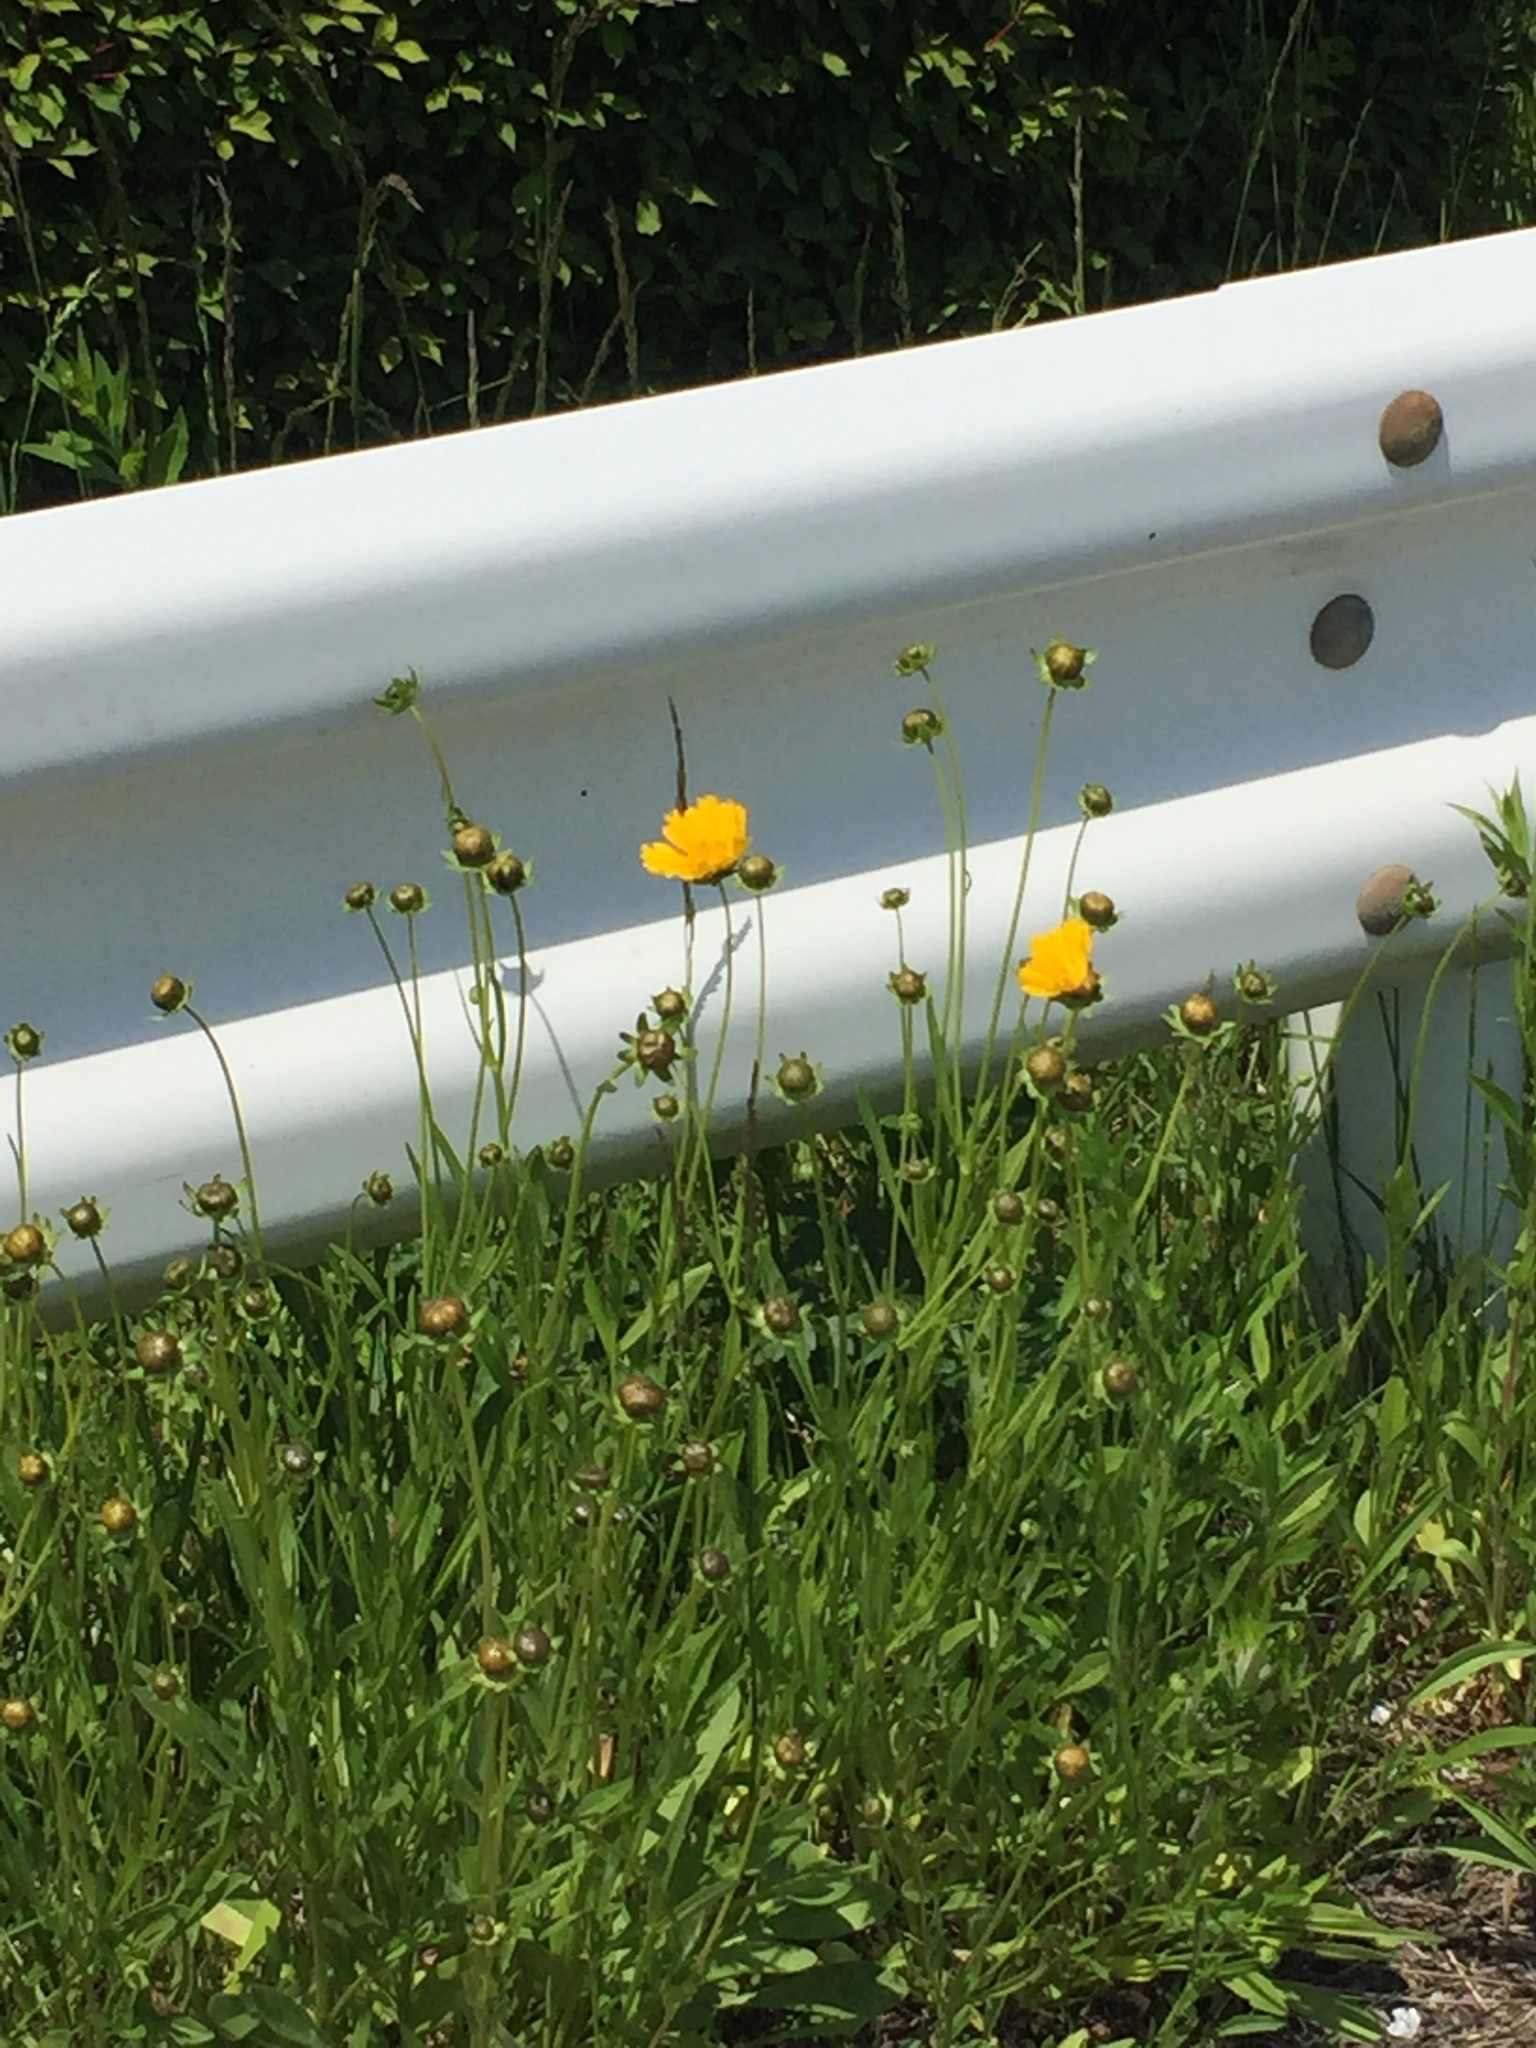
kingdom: Plantae
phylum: Tracheophyta
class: Magnoliopsida
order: Asterales
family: Asteraceae
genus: Coreopsis
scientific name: Coreopsis lanceolata
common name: Garden coreopsis
